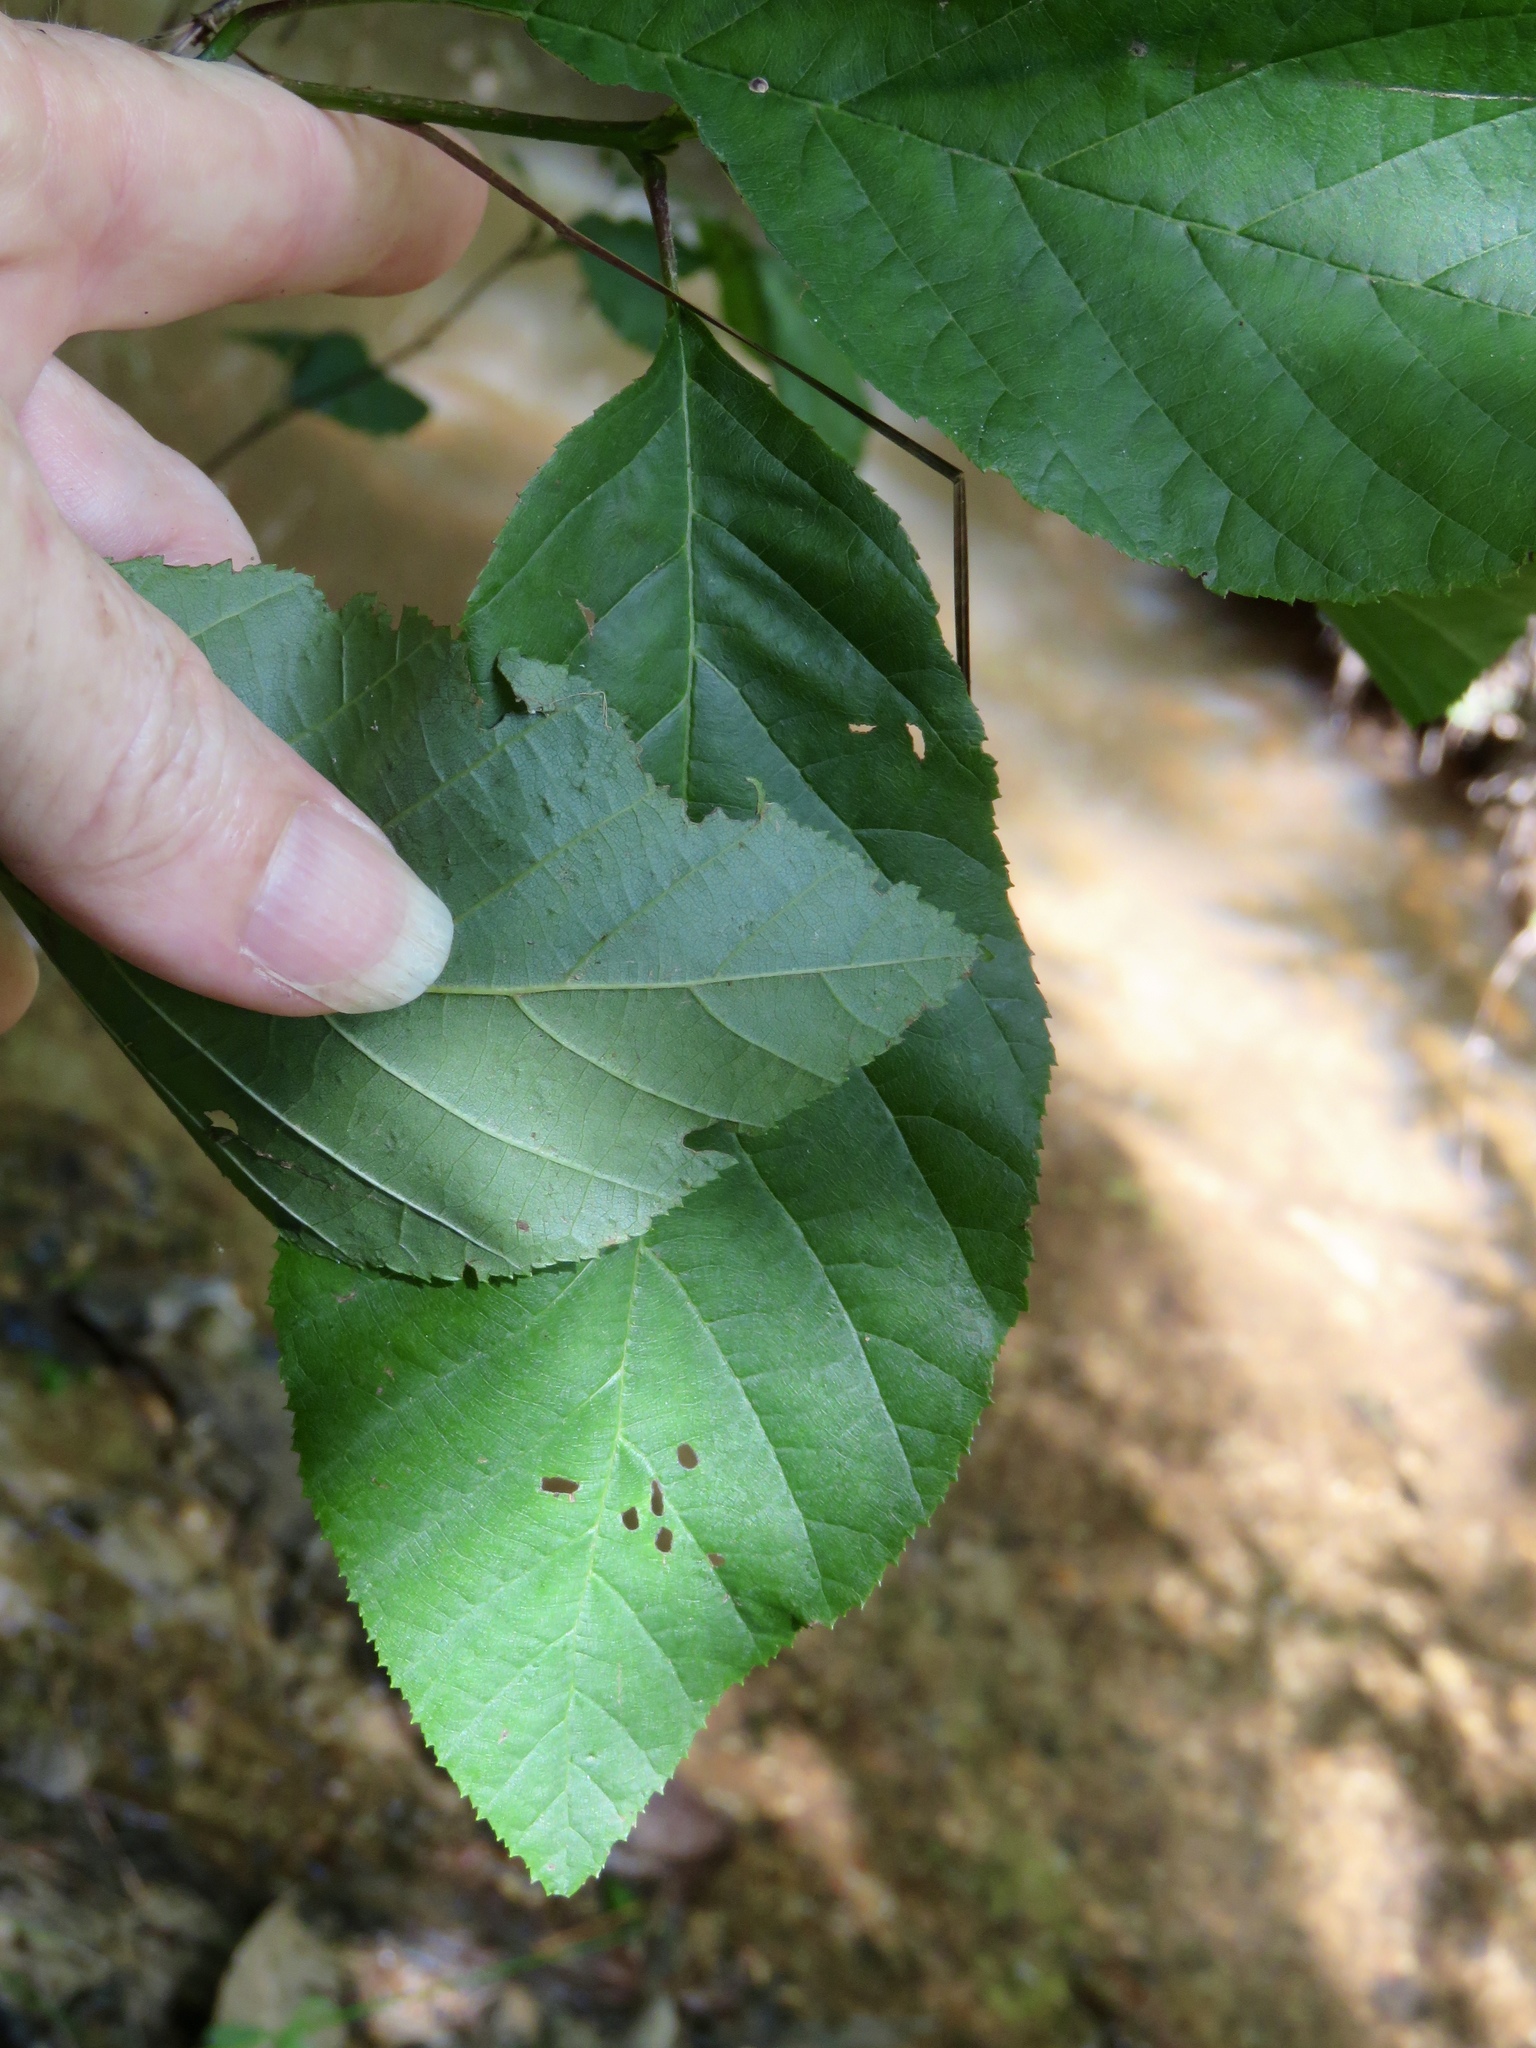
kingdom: Plantae
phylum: Tracheophyta
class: Magnoliopsida
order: Fagales
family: Betulaceae
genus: Alnus
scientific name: Alnus serrulata
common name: Hazel alder
